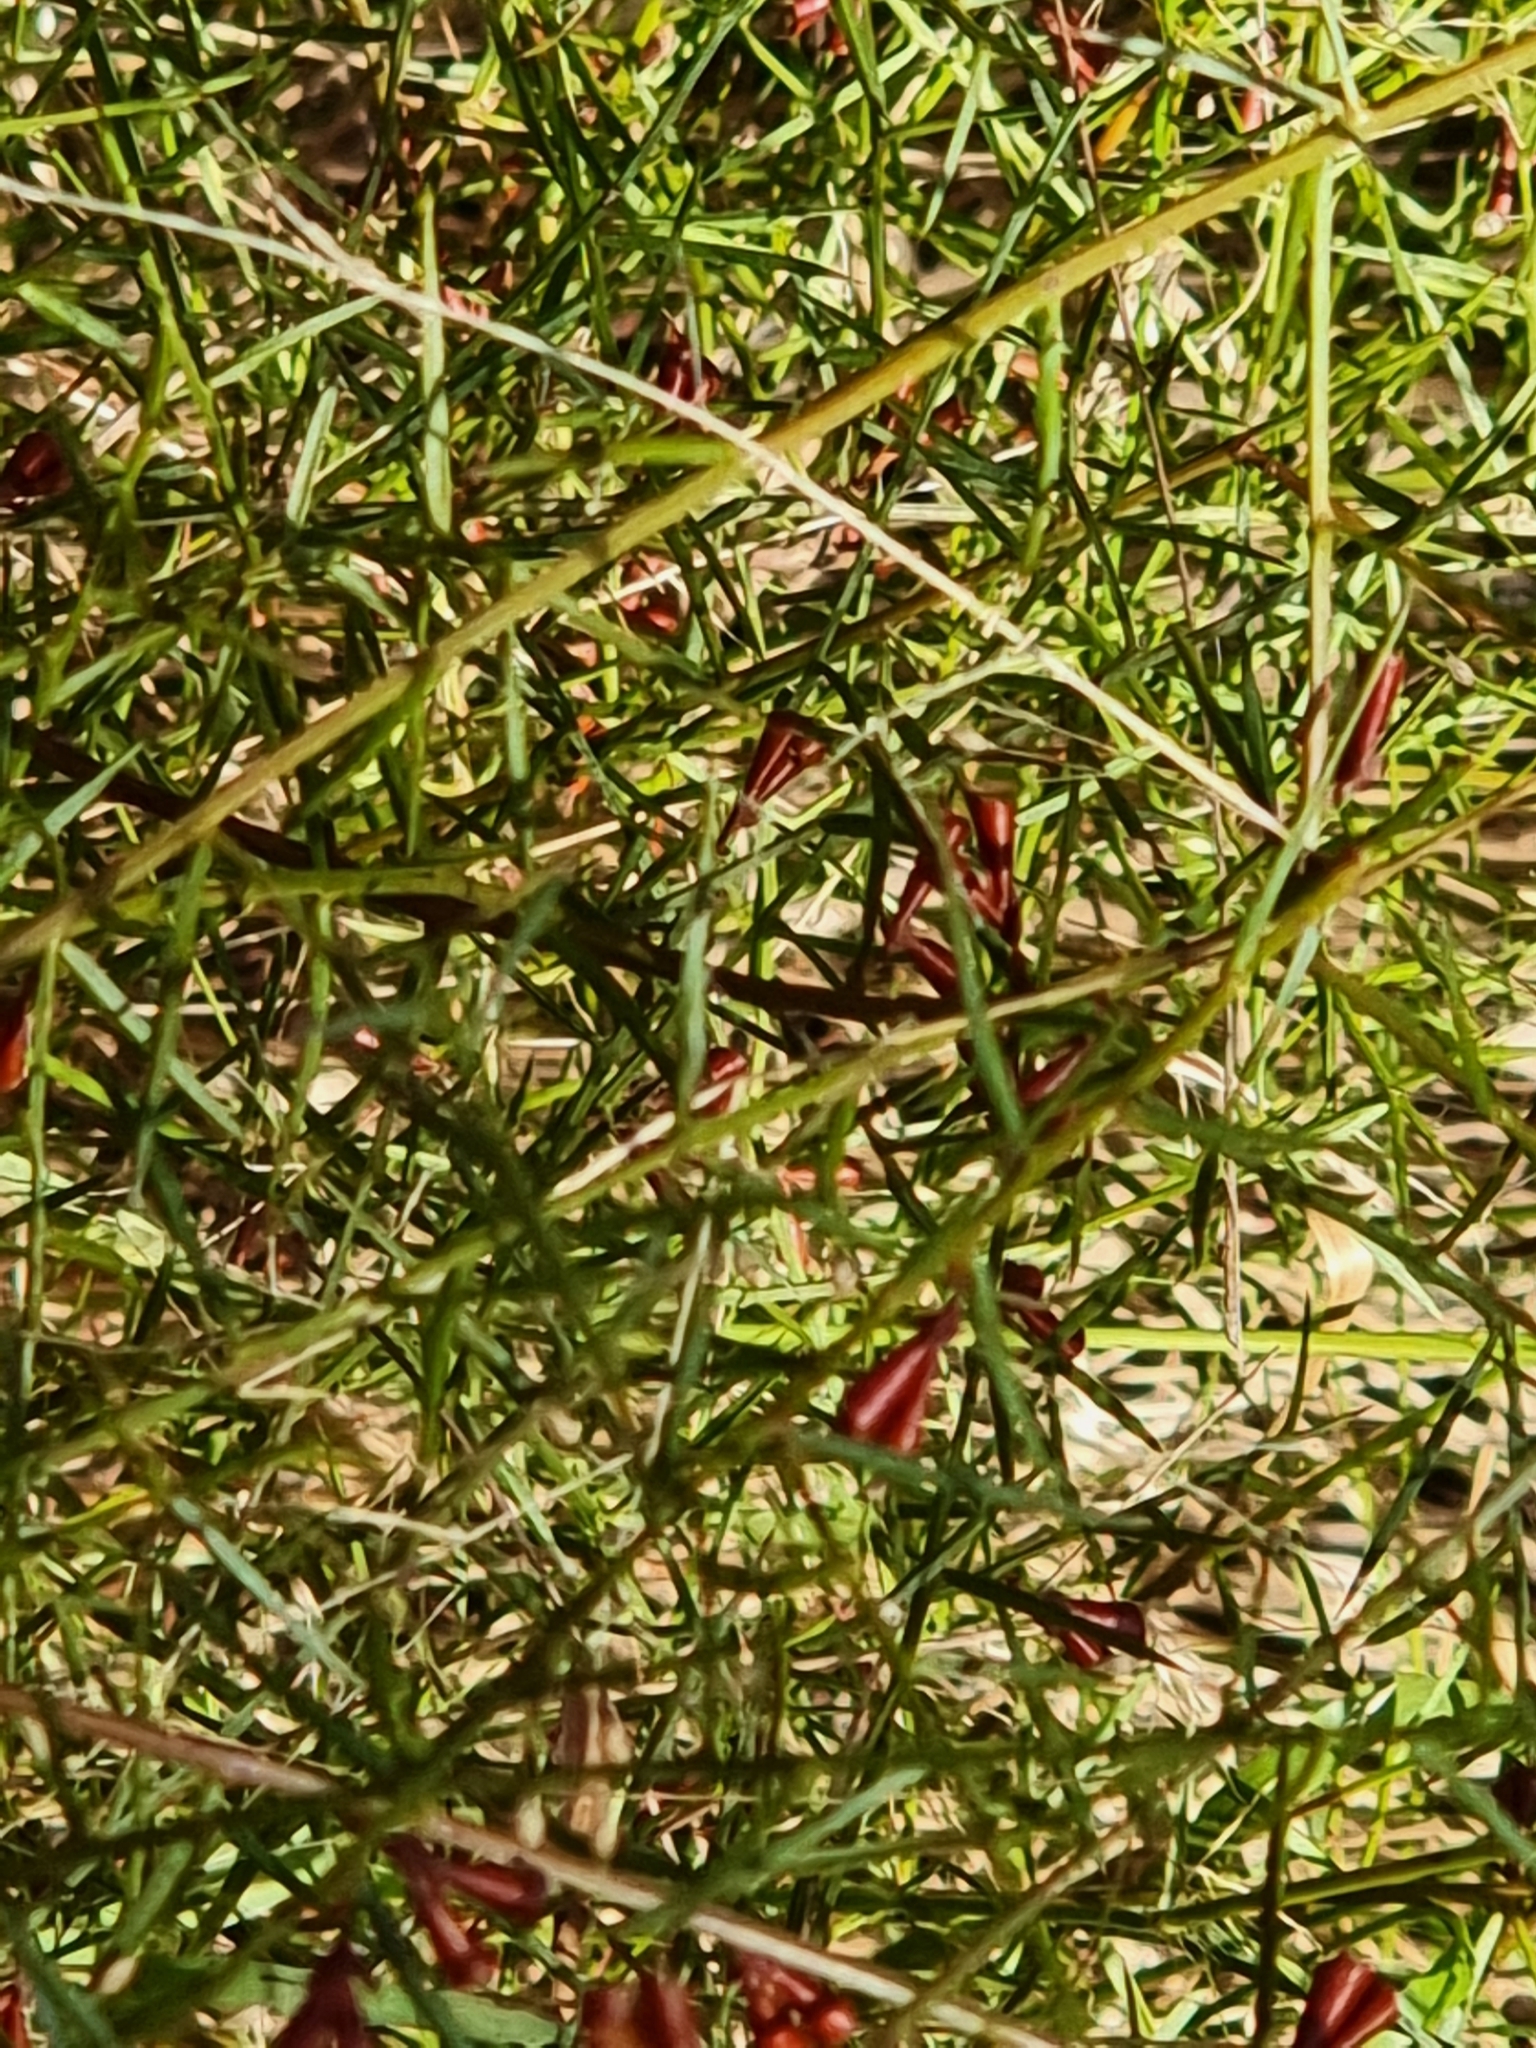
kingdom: Plantae
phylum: Tracheophyta
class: Magnoliopsida
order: Fabales
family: Fabaceae
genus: Daviesia
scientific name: Daviesia ulicifolia
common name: Gorse bitter-pea
